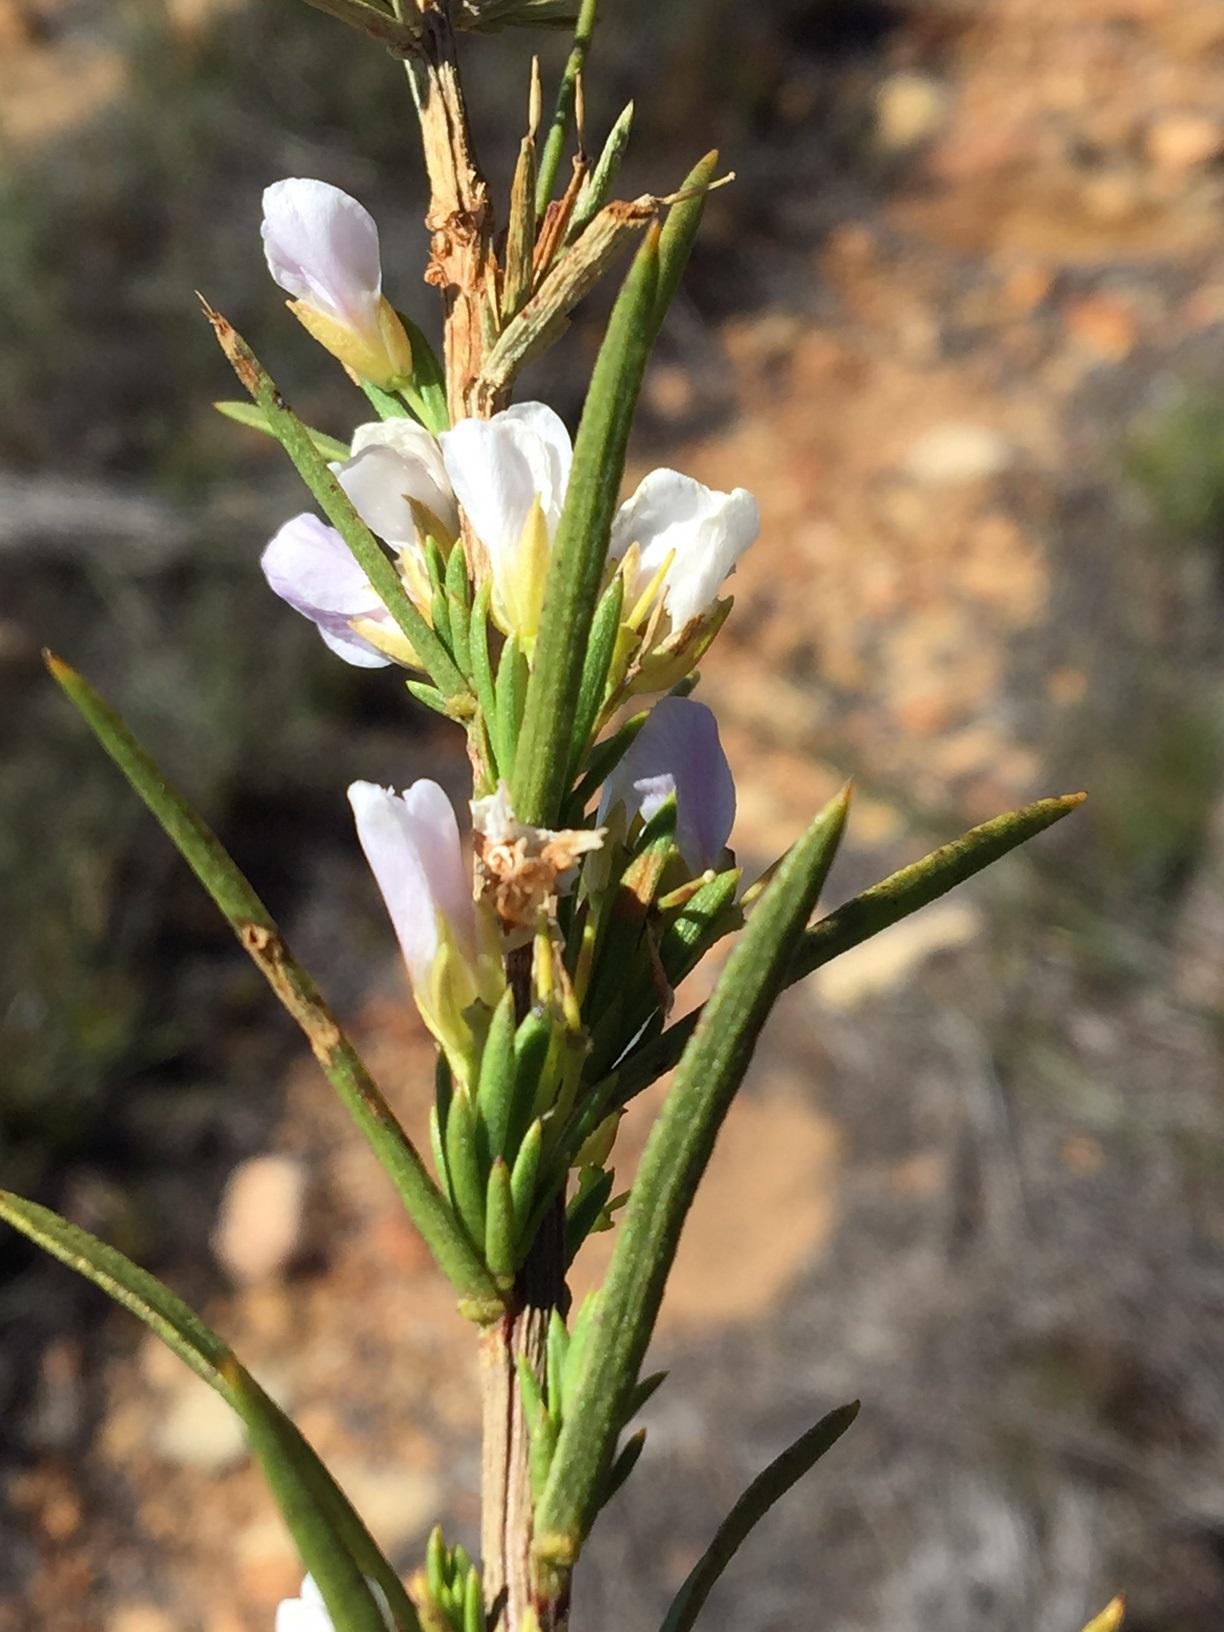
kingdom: Plantae
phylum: Tracheophyta
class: Magnoliopsida
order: Brassicales
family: Brassicaceae
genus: Heliophila
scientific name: Heliophila scoparia
